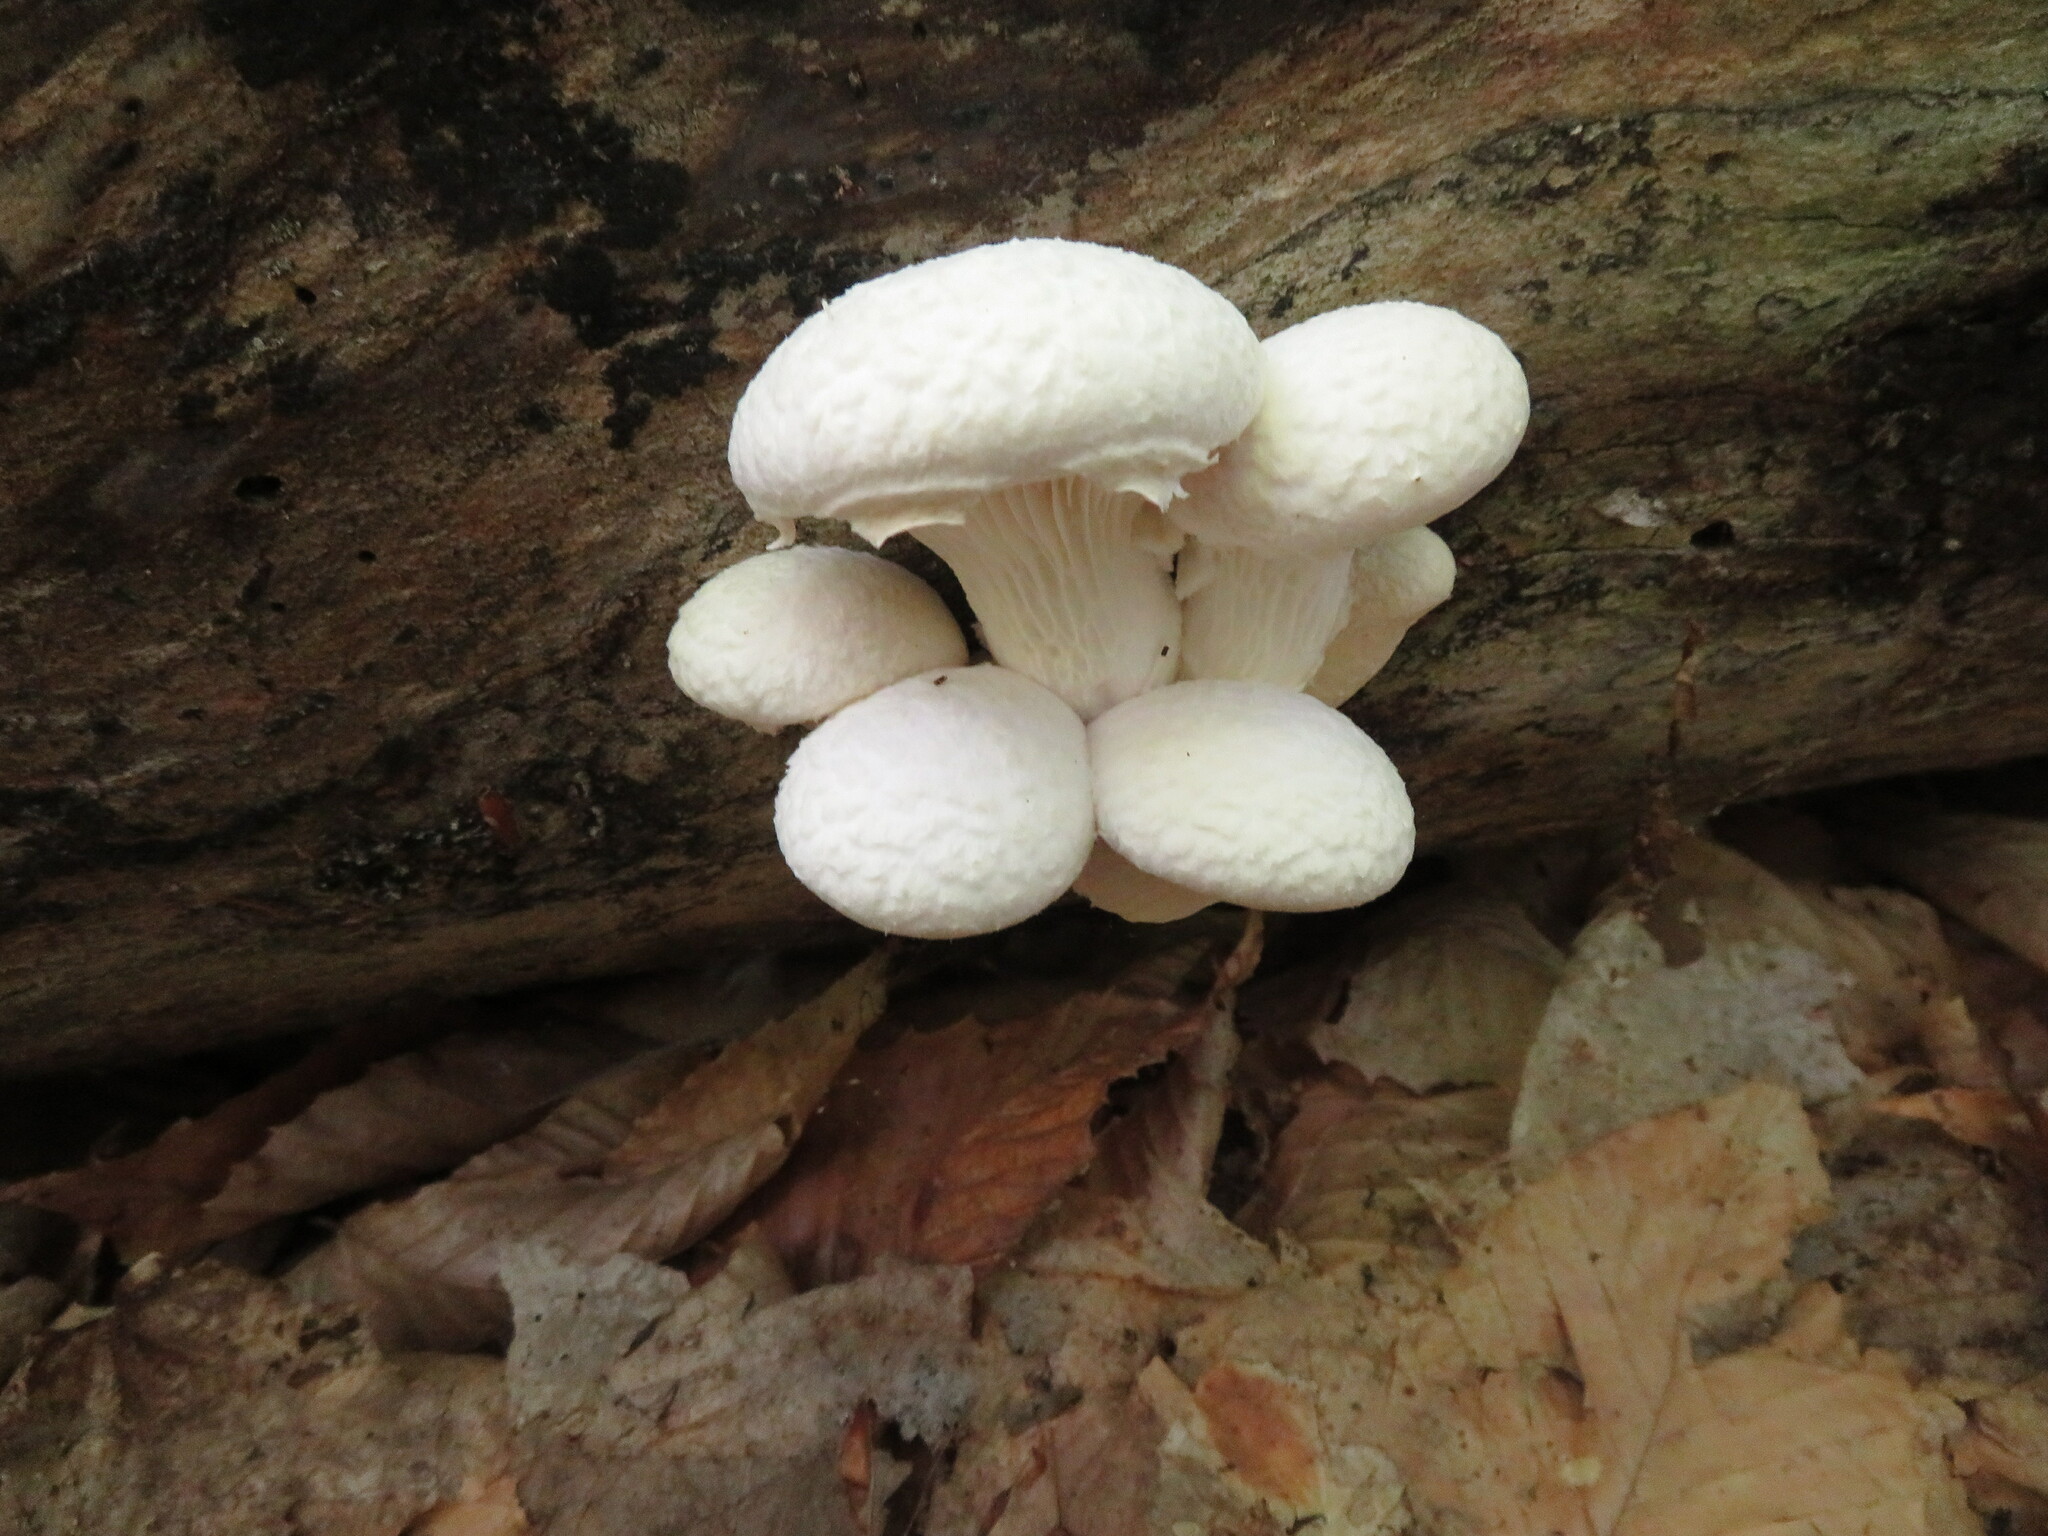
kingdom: Fungi
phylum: Basidiomycota
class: Agaricomycetes
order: Agaricales
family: Pleurotaceae
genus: Pleurotus
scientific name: Pleurotus dryinus
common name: Veiled oyster
